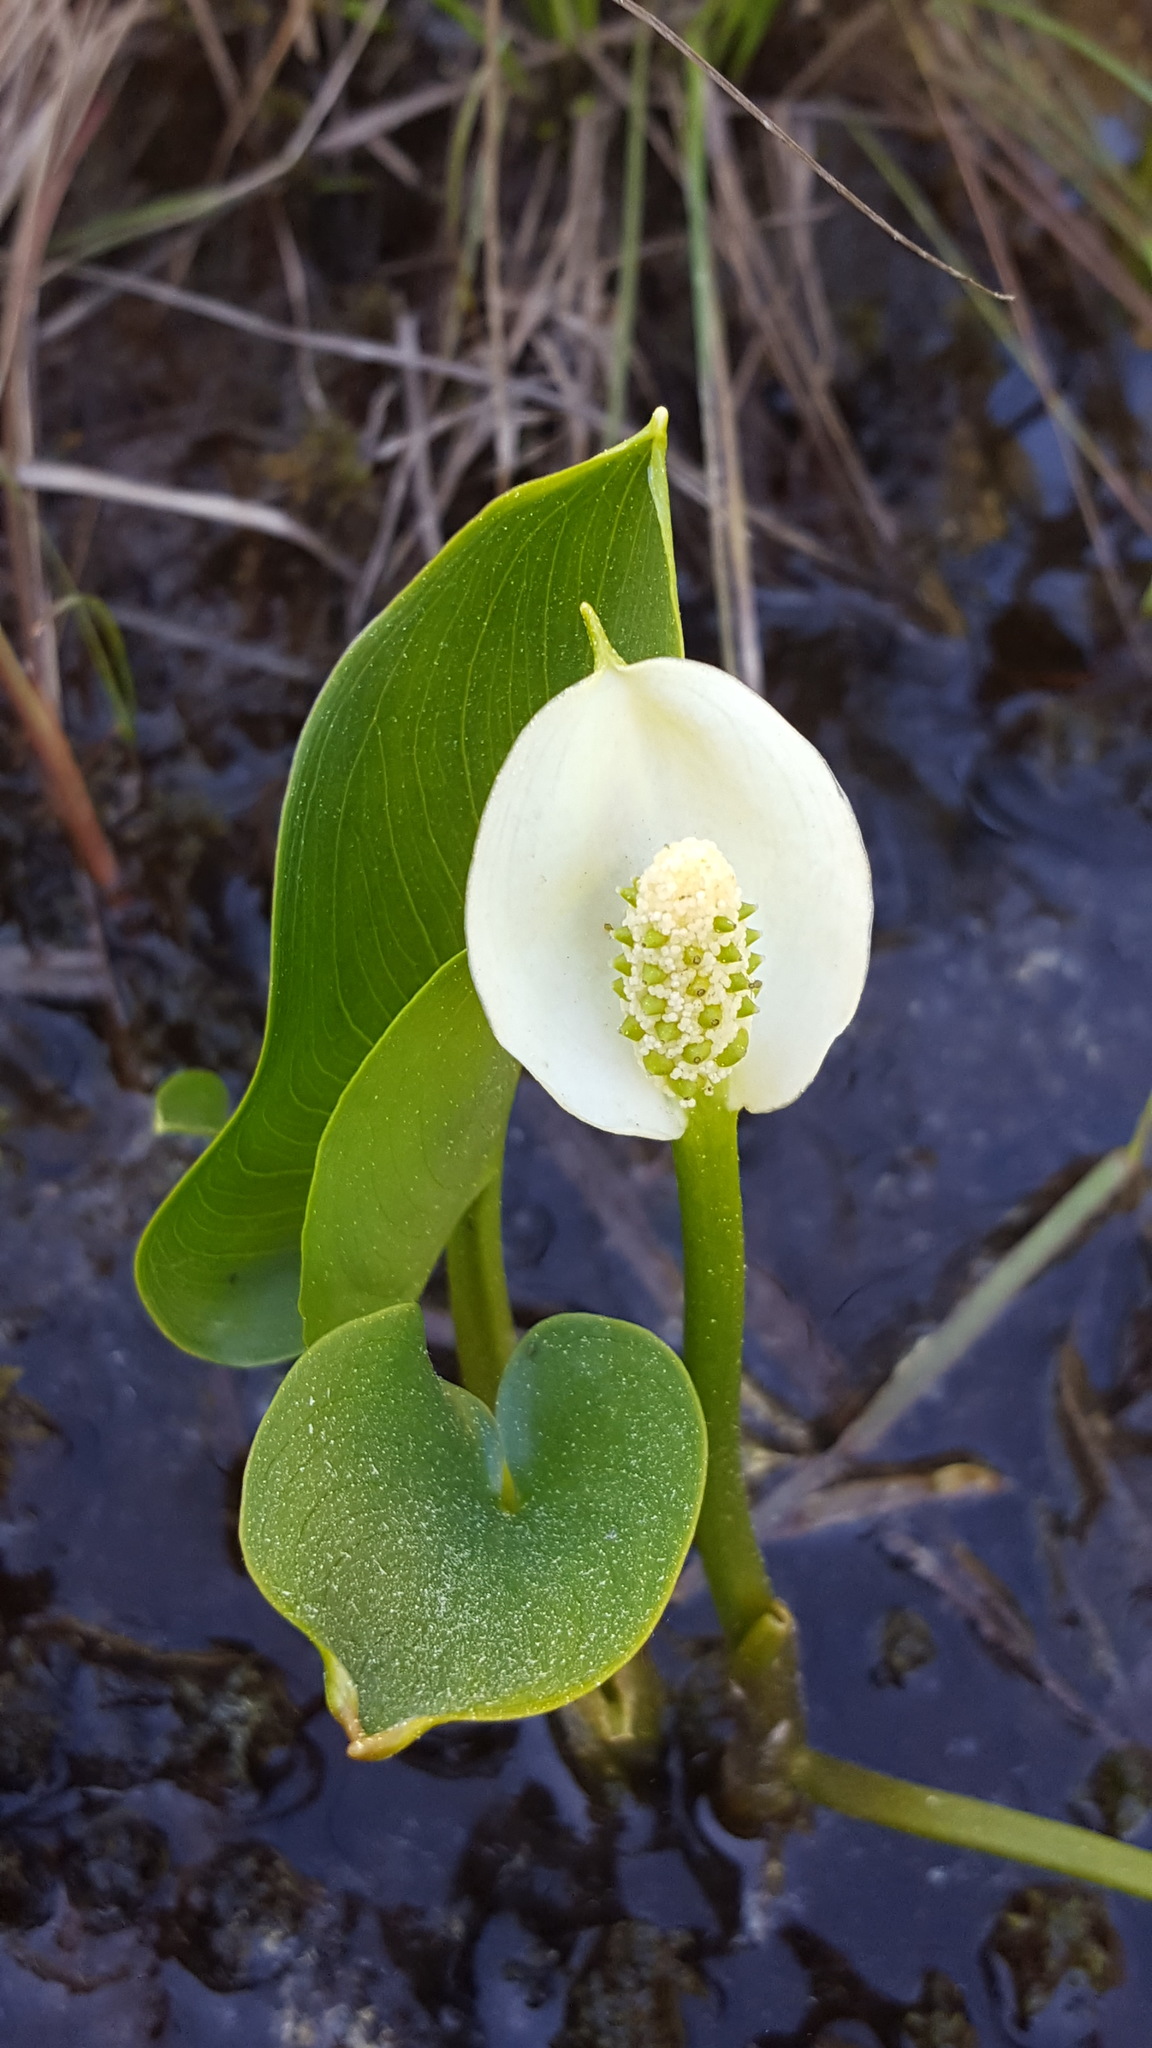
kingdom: Plantae
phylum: Tracheophyta
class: Liliopsida
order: Alismatales
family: Araceae
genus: Calla
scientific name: Calla palustris
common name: Bog arum
